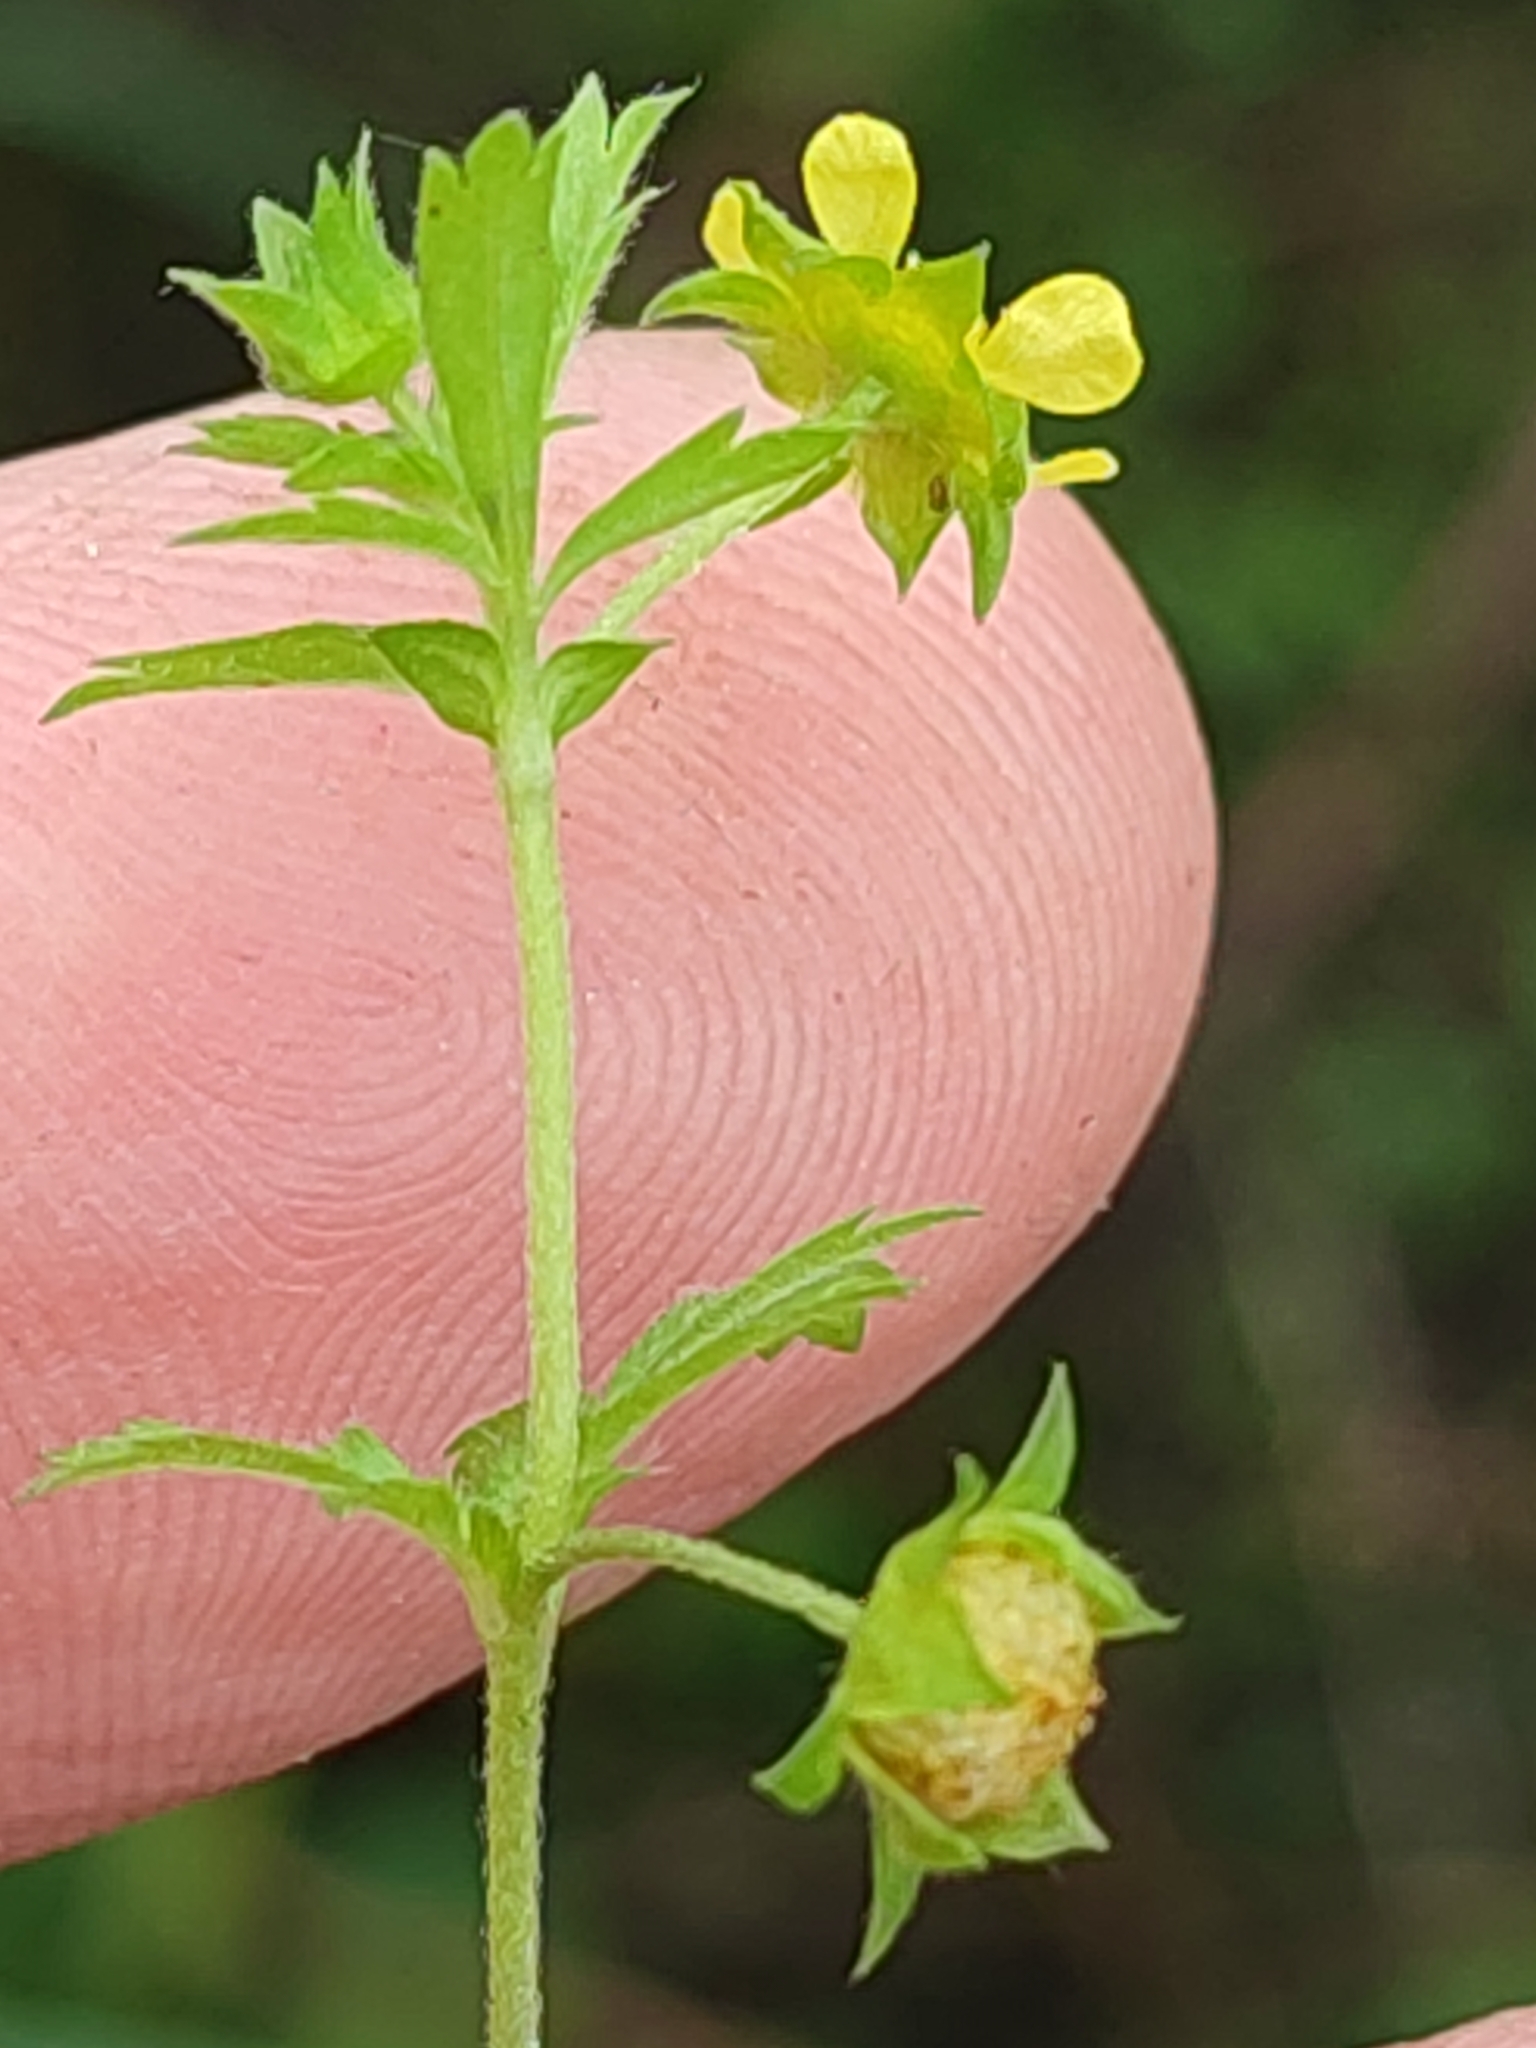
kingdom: Plantae
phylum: Tracheophyta
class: Magnoliopsida
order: Rosales
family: Rosaceae
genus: Potentilla
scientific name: Potentilla supina
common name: Prostrate cinquefoil
